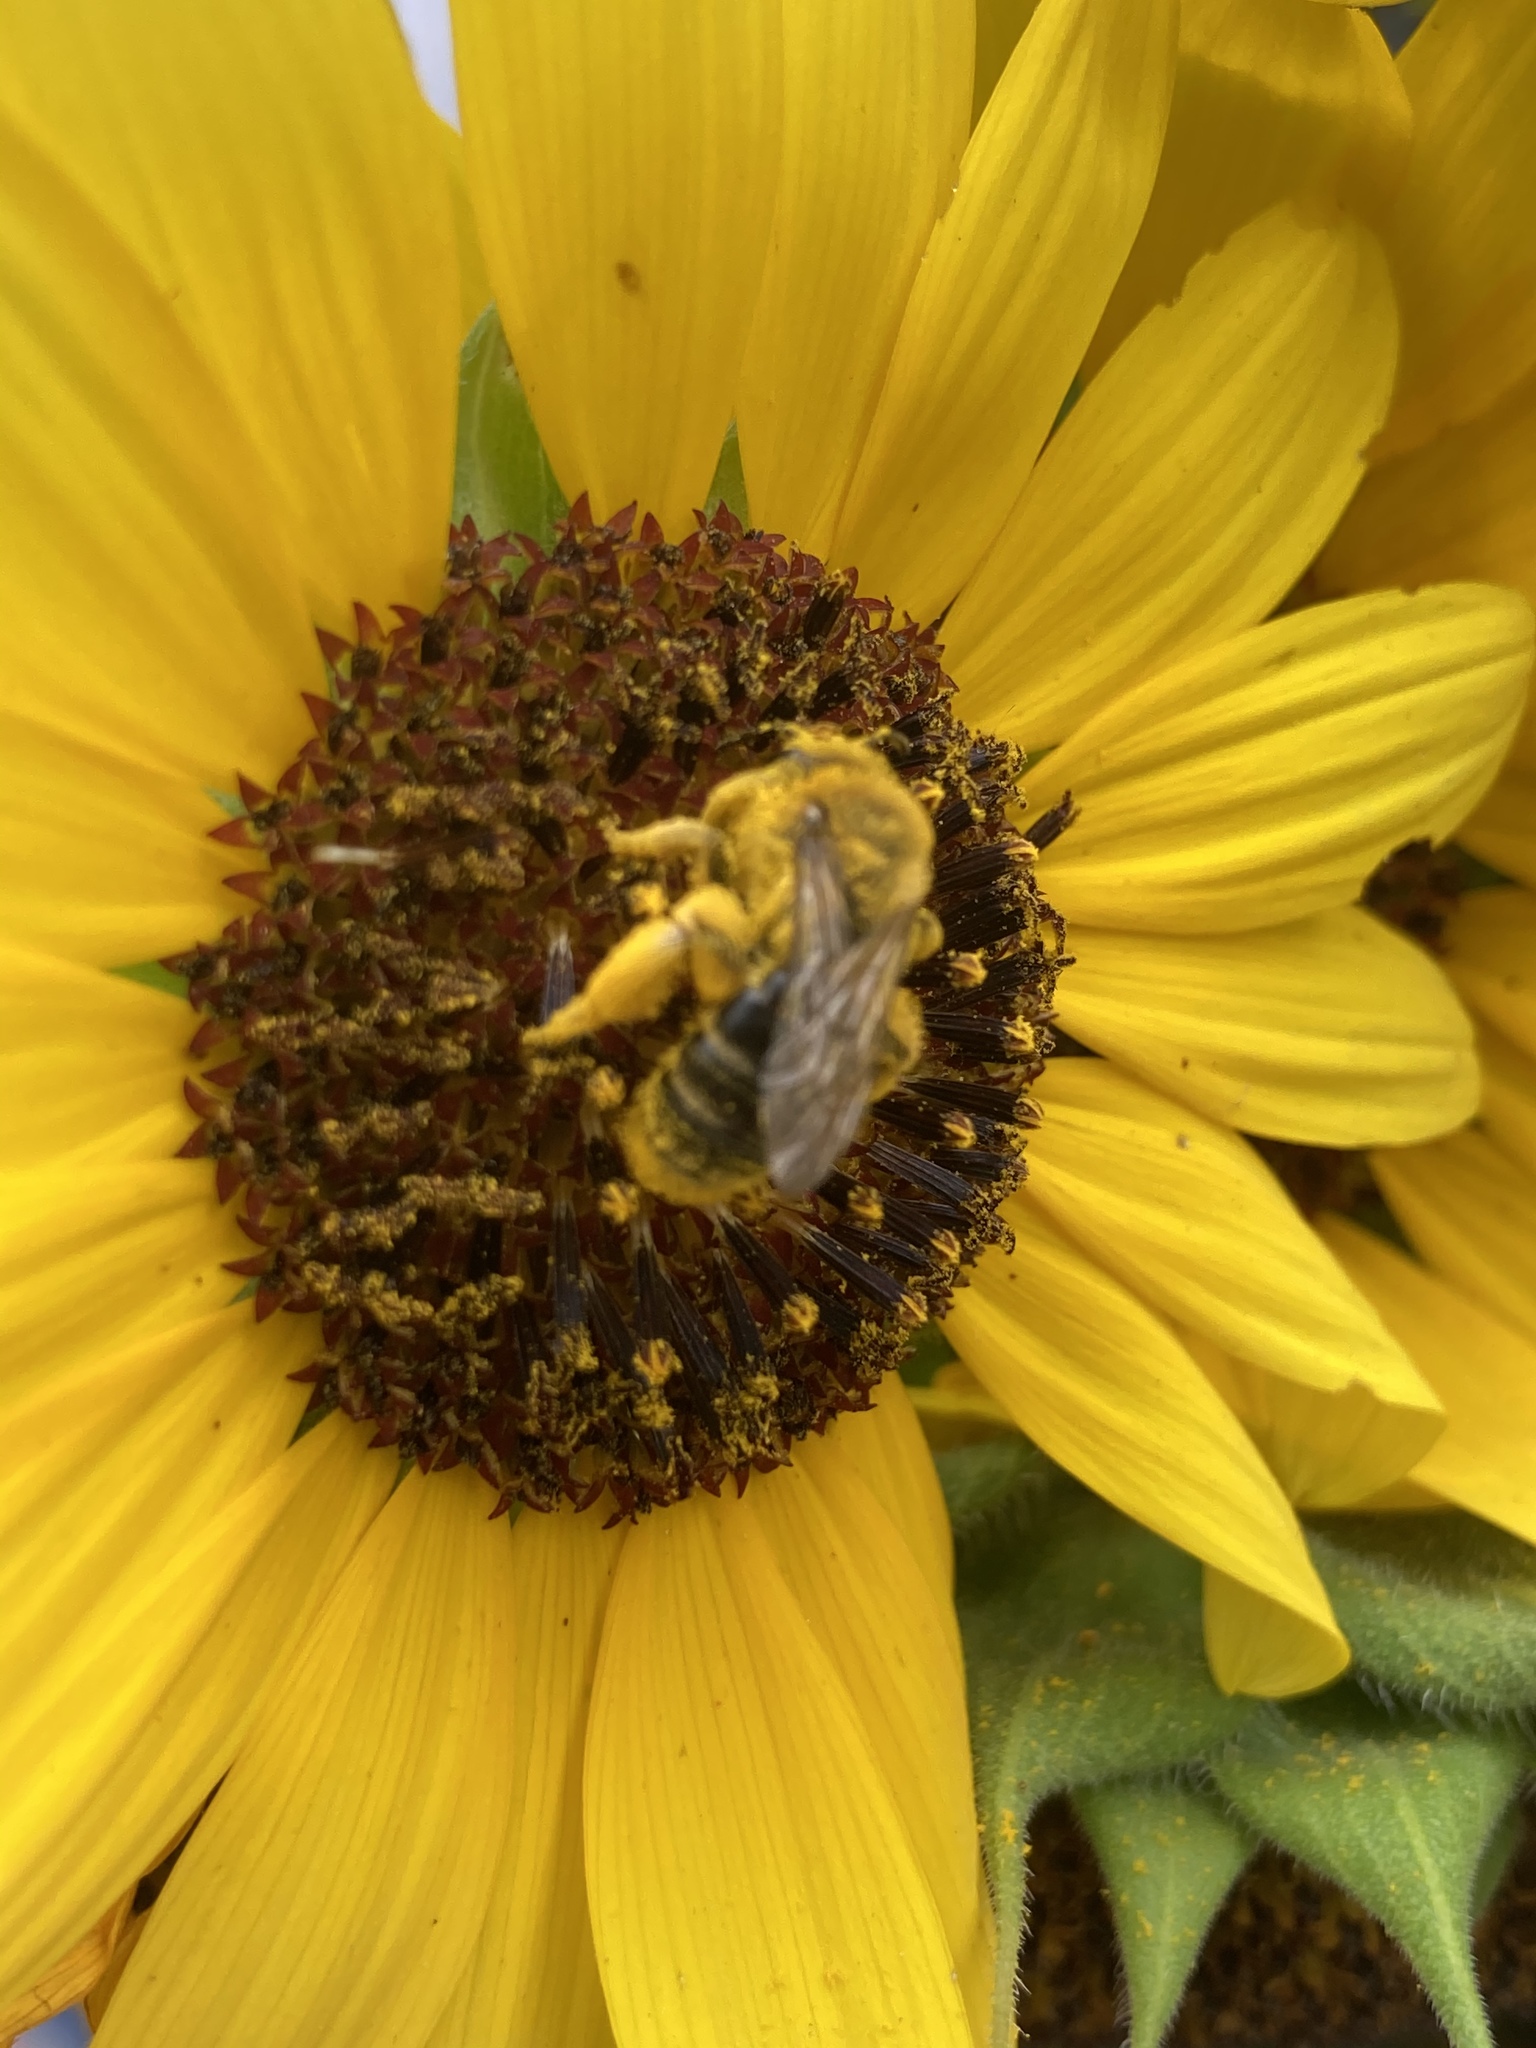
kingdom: Animalia
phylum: Arthropoda
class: Insecta
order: Hymenoptera
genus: Callandrena
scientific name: Callandrena
